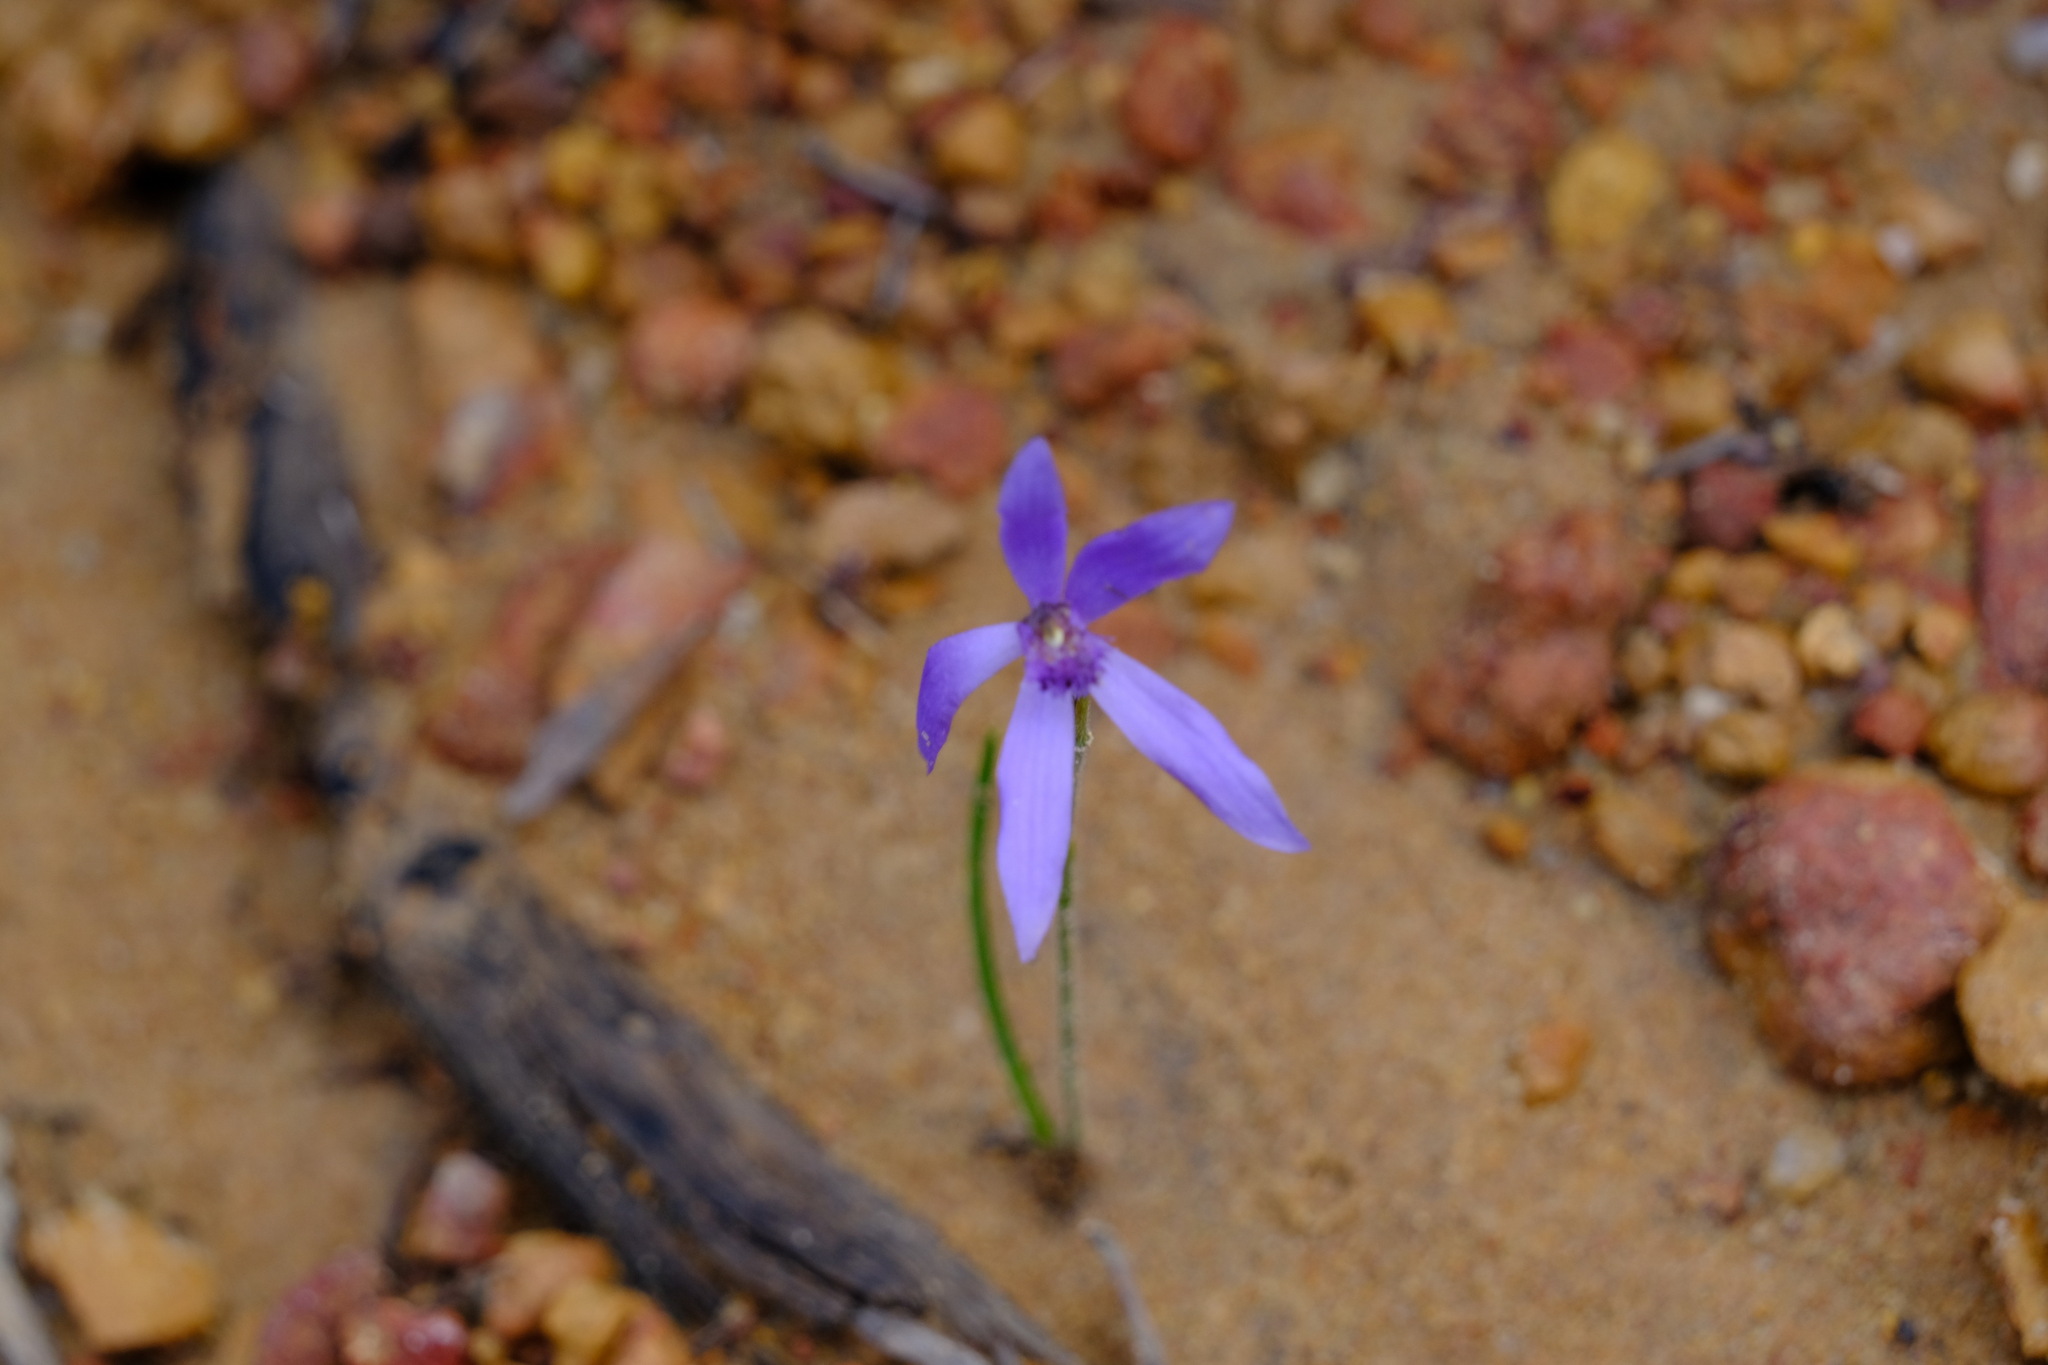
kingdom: Plantae
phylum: Tracheophyta
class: Liliopsida
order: Asparagales
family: Orchidaceae
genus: Pheladenia
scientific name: Pheladenia deformis
